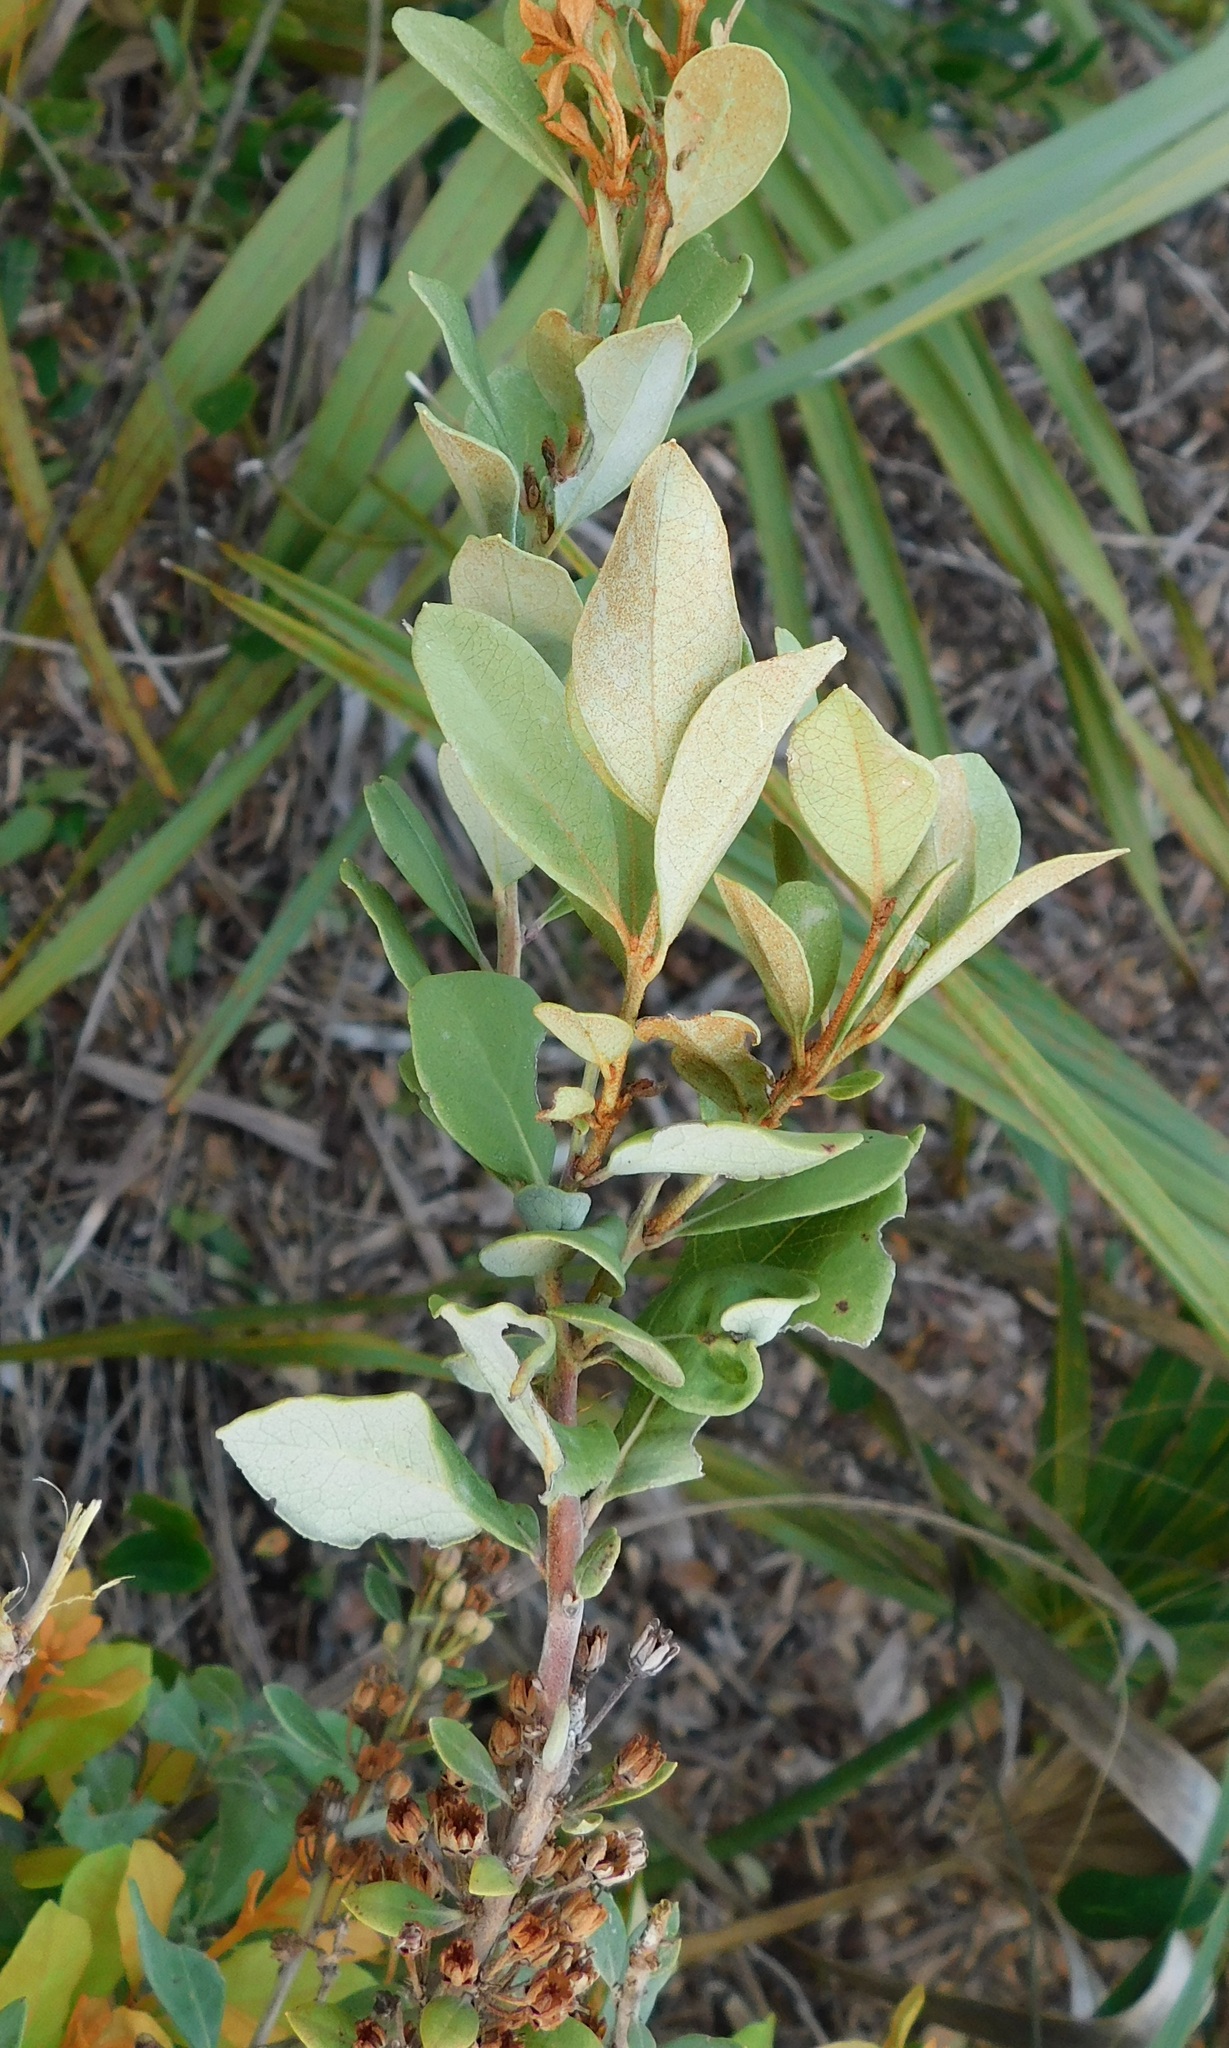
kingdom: Plantae
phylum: Tracheophyta
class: Magnoliopsida
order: Ericales
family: Ericaceae
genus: Lyonia
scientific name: Lyonia fruticosa
